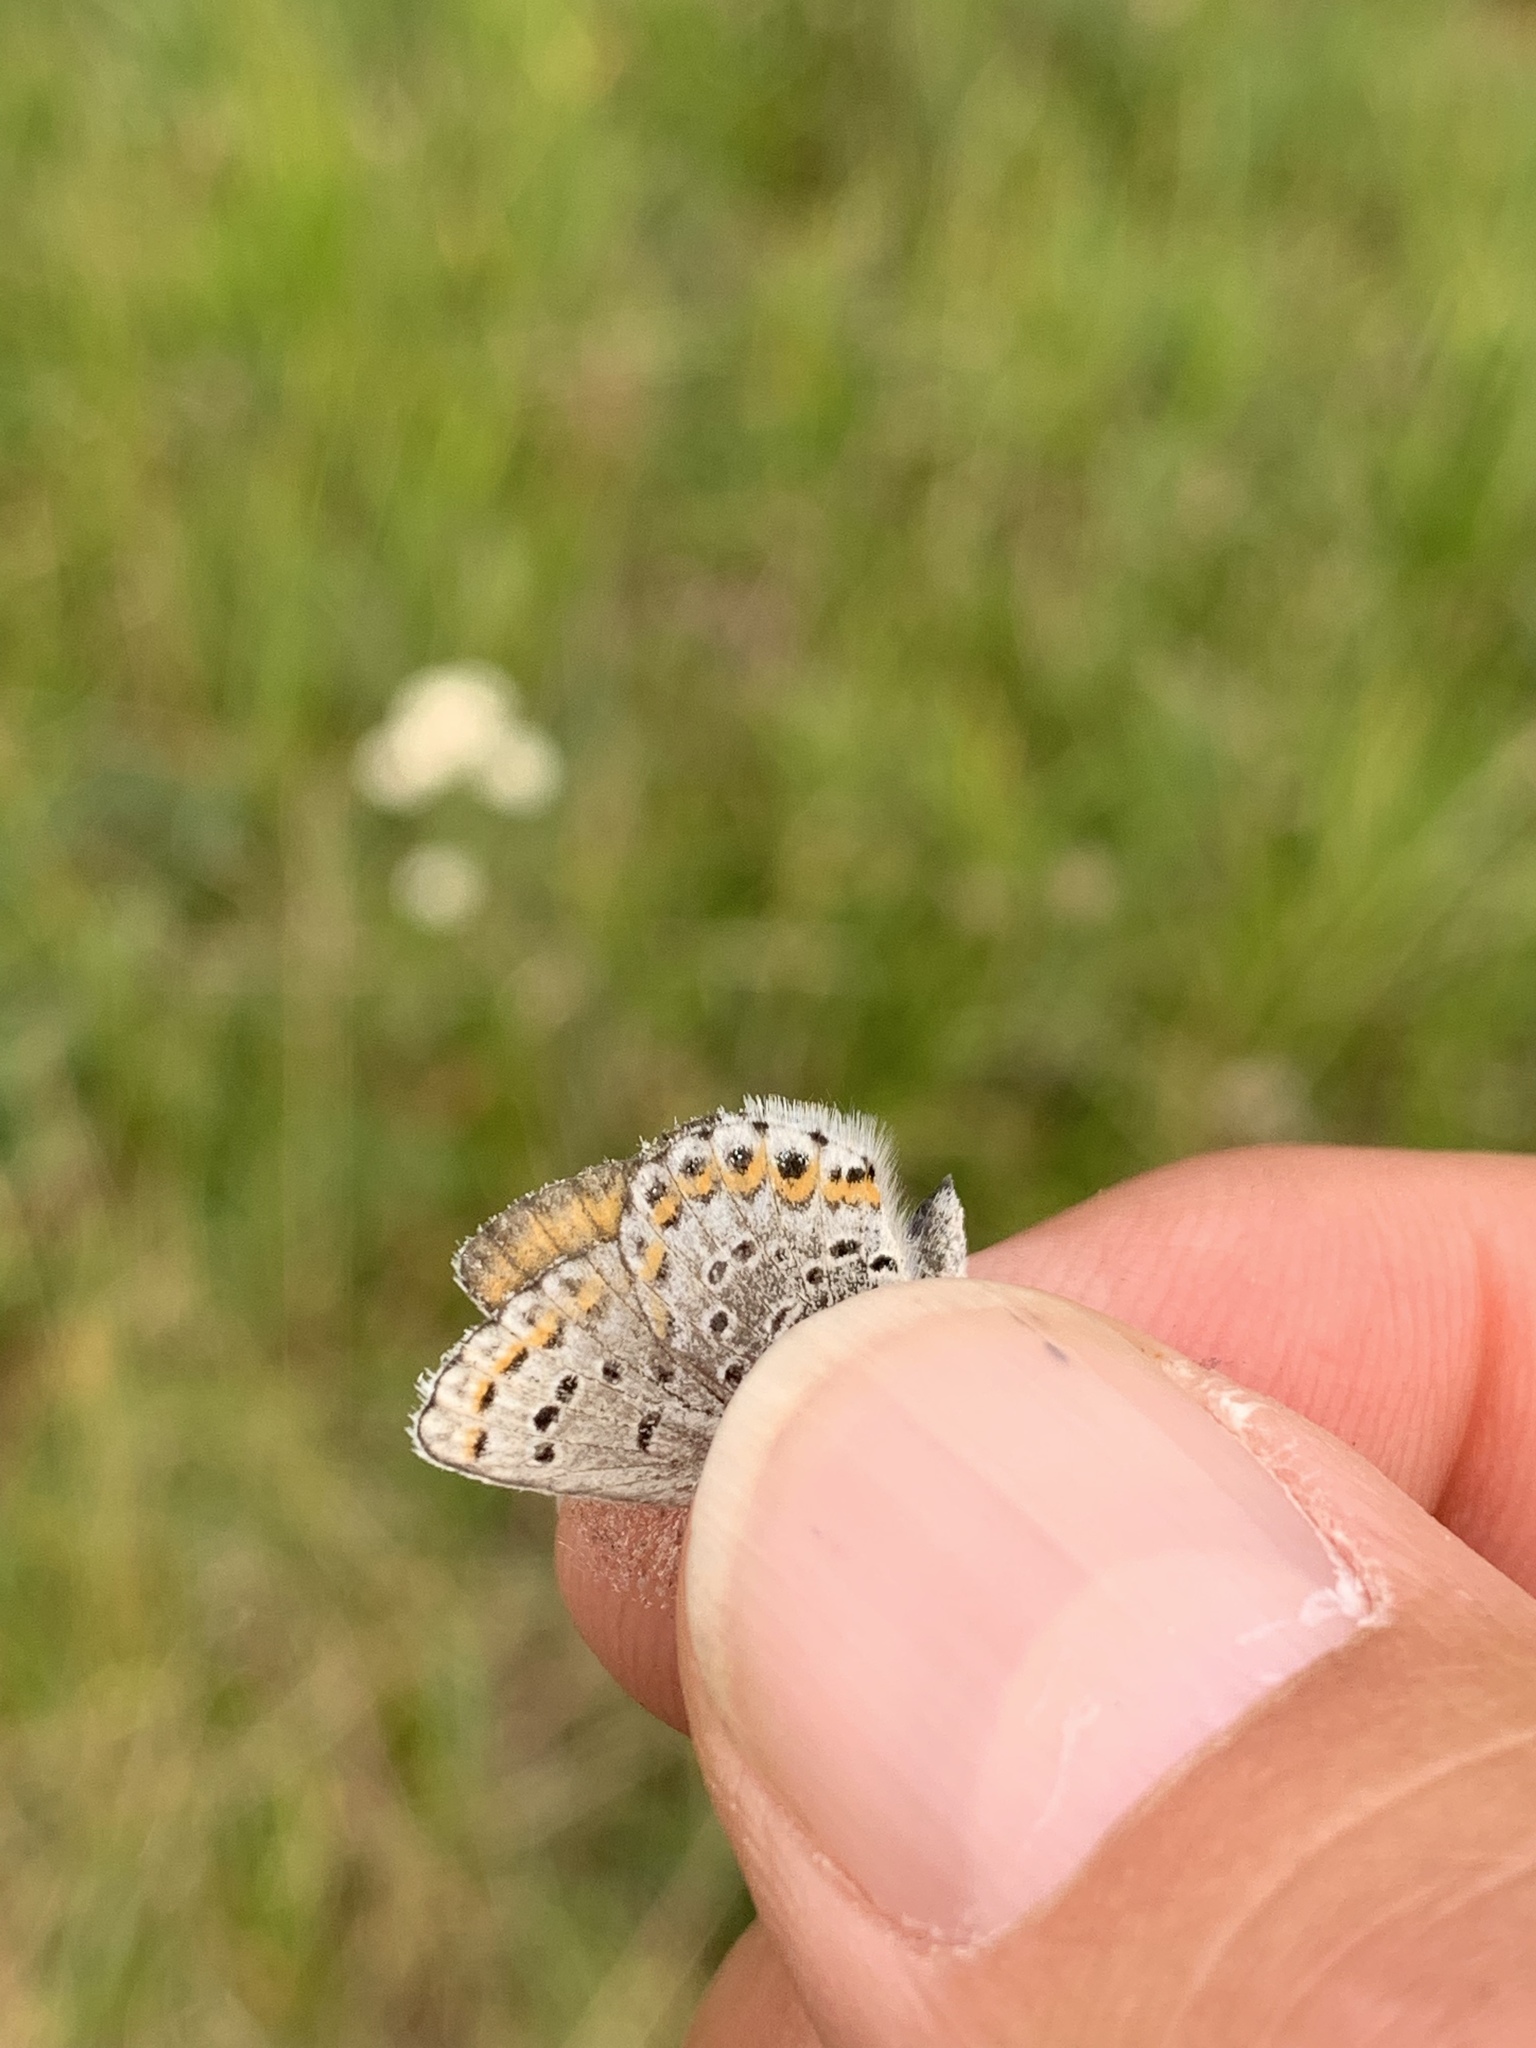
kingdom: Animalia
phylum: Arthropoda
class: Insecta
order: Lepidoptera
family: Lycaenidae
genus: Lycaeides
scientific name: Lycaeides idas
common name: Northern blue
